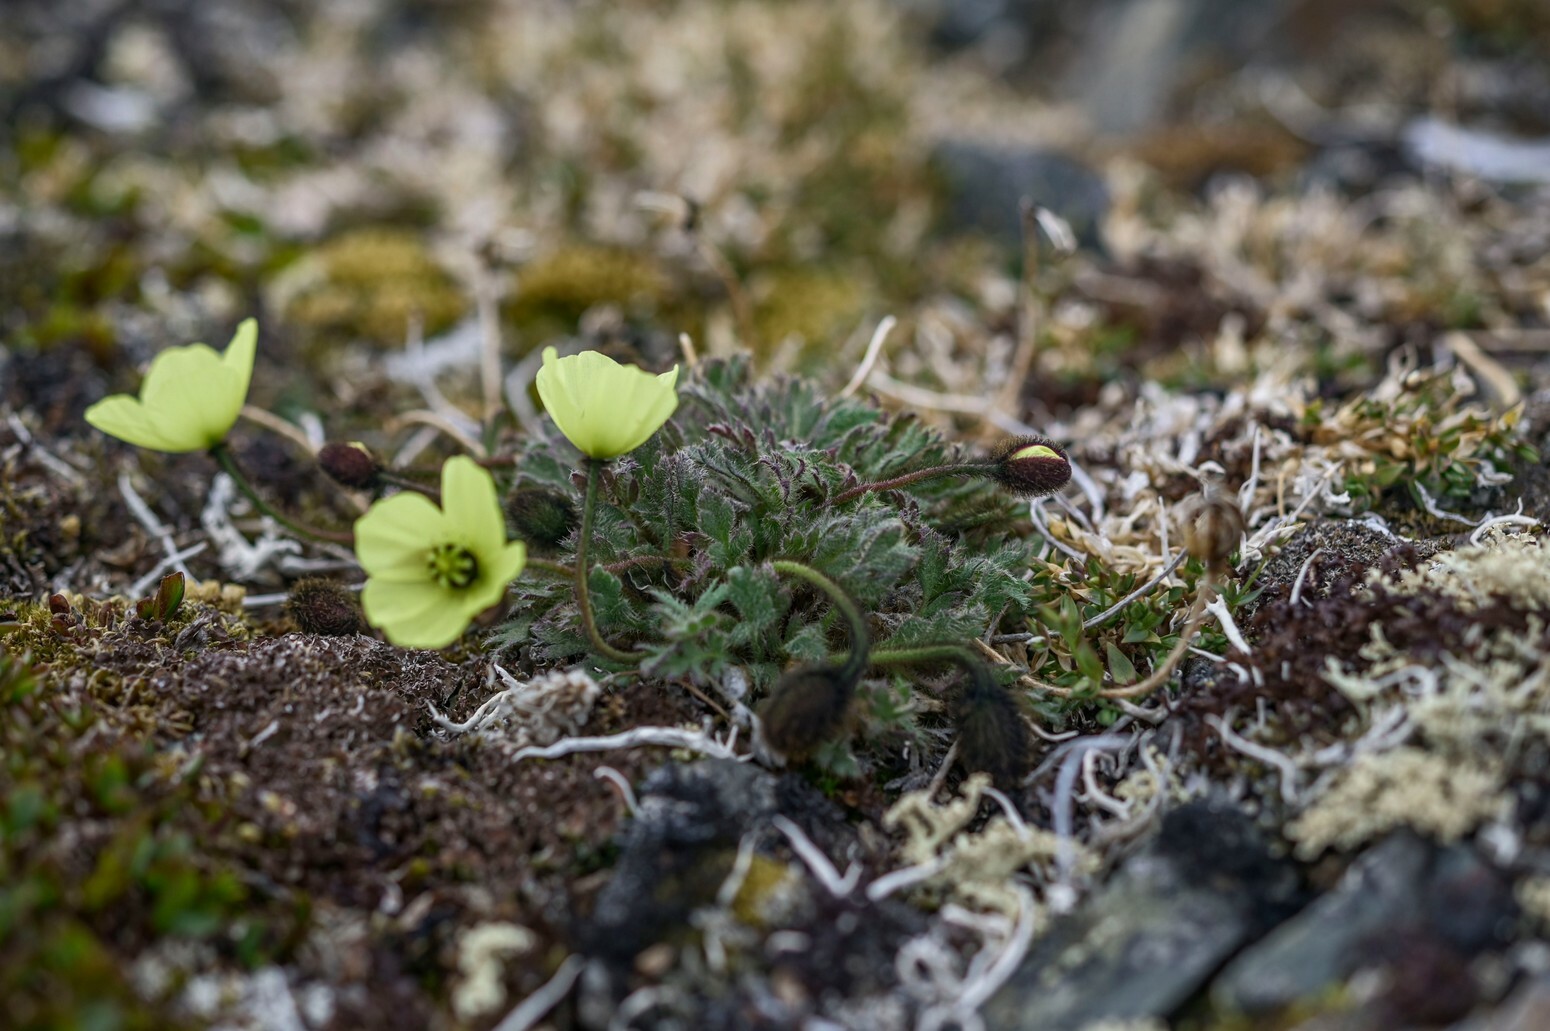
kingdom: Plantae
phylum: Tracheophyta
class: Magnoliopsida
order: Ranunculales
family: Papaveraceae
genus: Papaver
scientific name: Papaver radicatum
